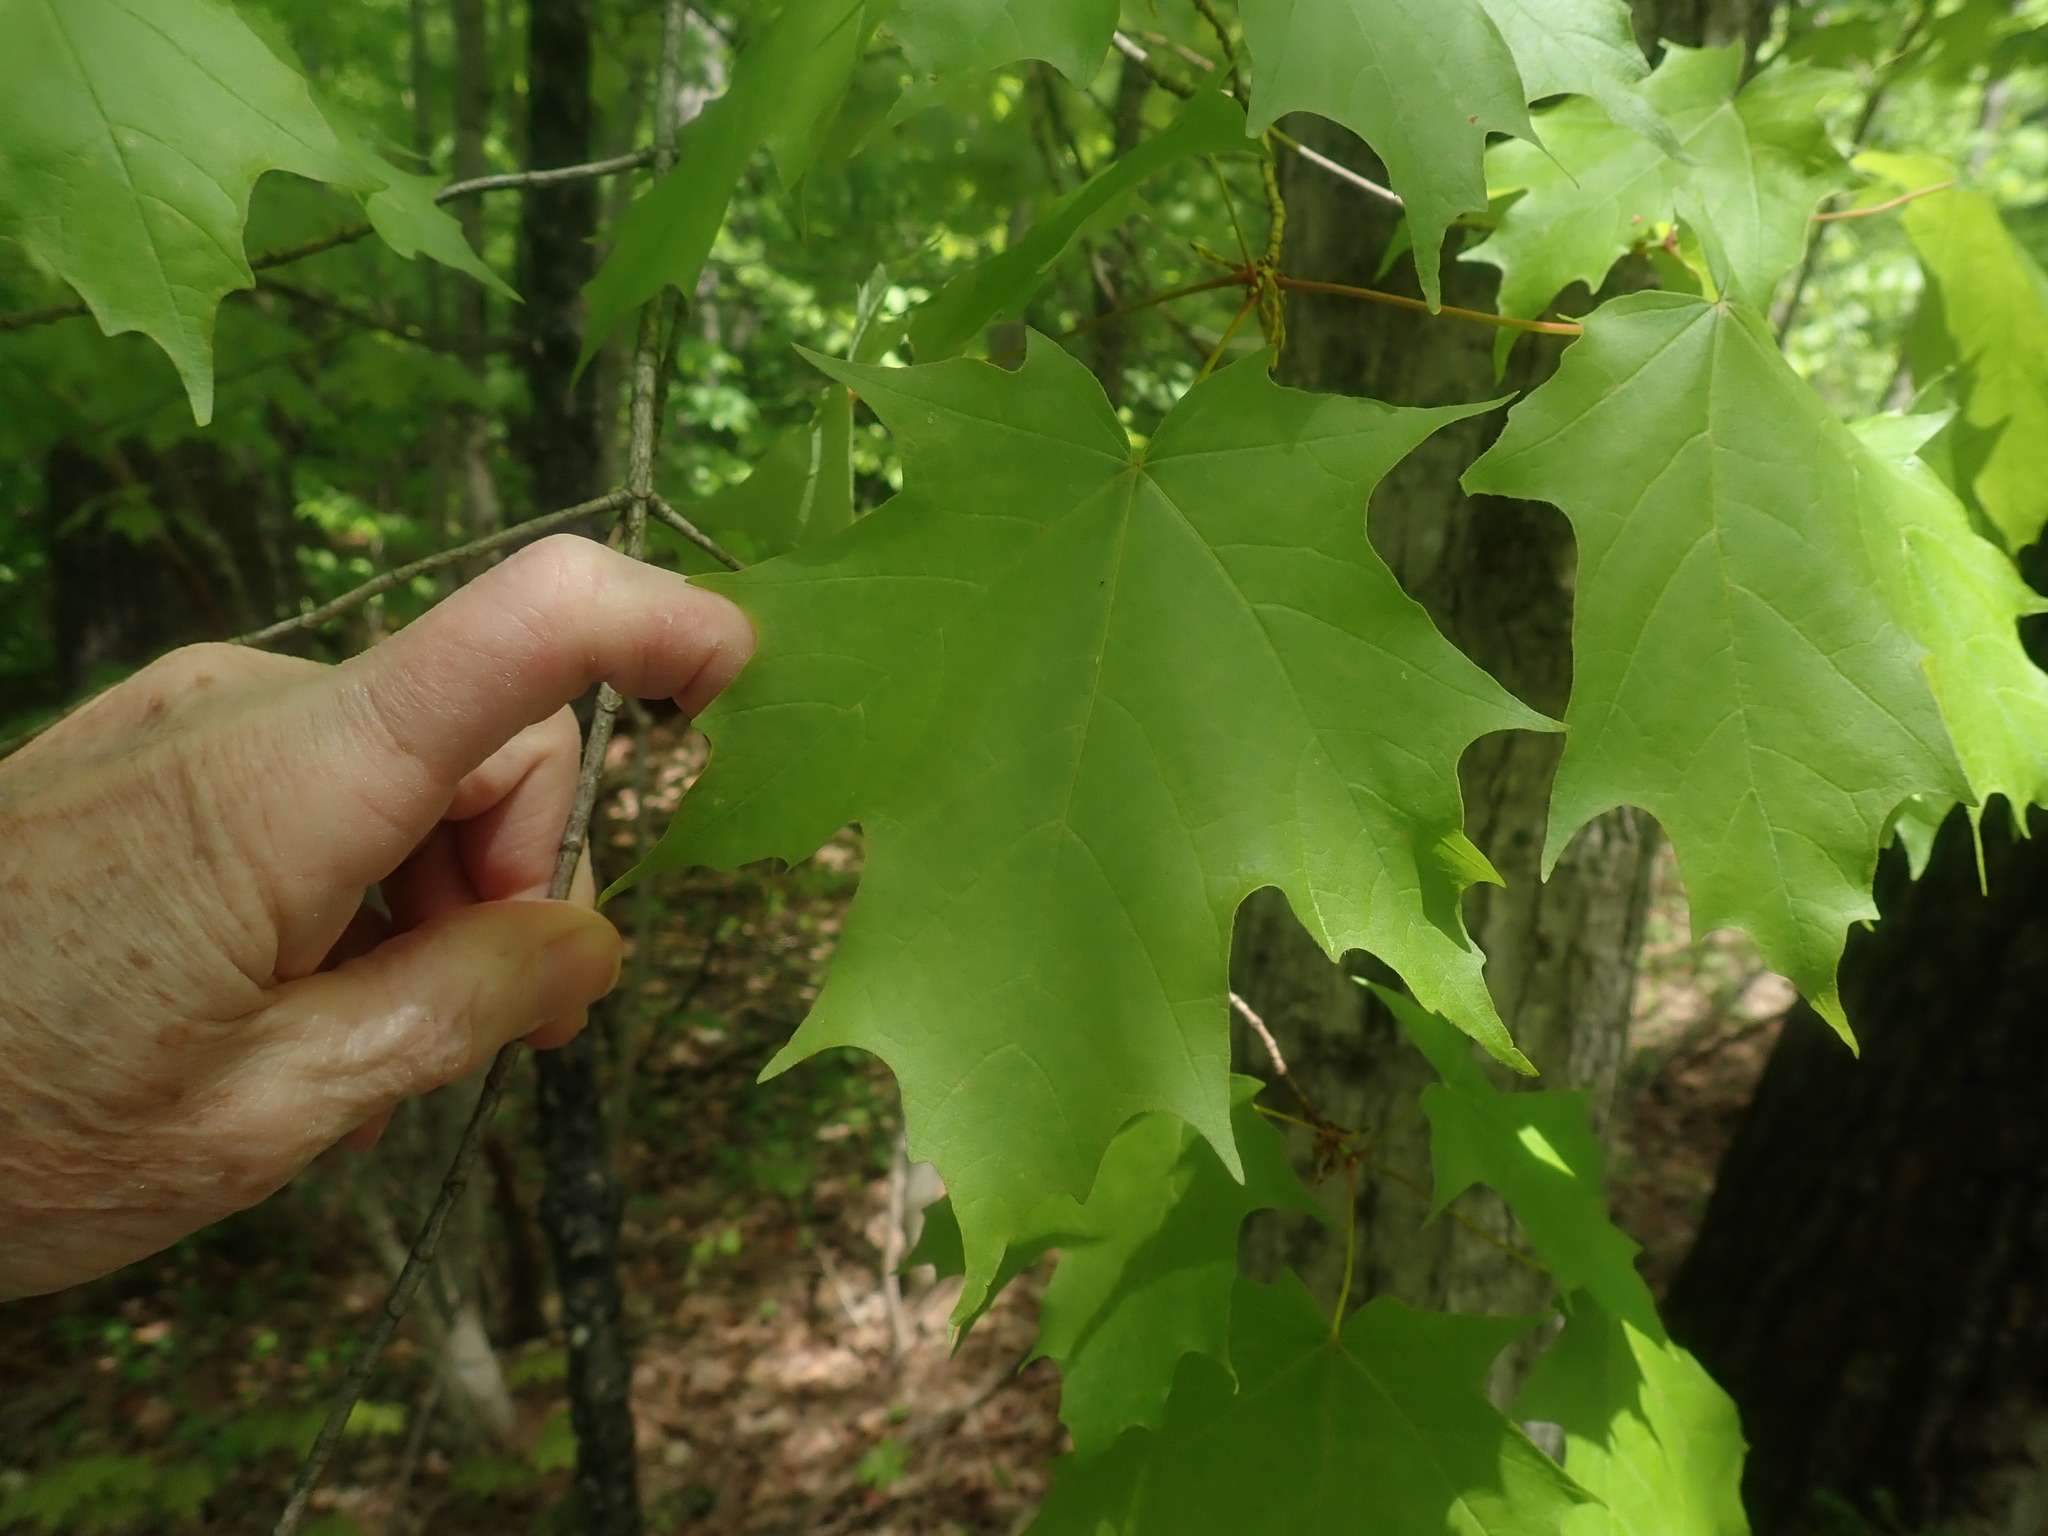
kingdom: Plantae
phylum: Tracheophyta
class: Magnoliopsida
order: Sapindales
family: Sapindaceae
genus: Acer
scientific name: Acer saccharum
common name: Sugar maple
